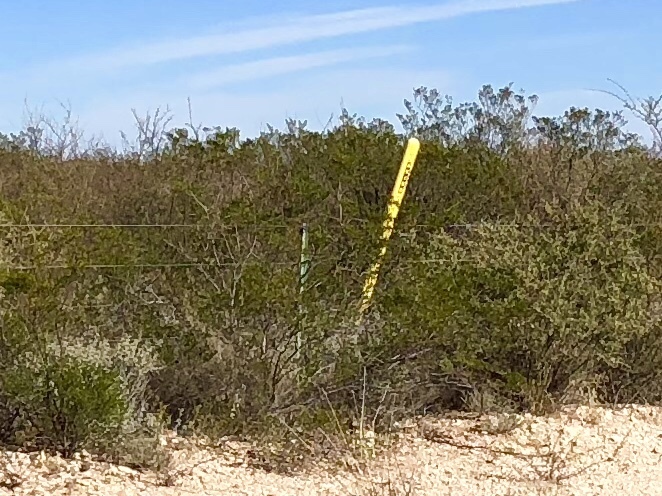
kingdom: Plantae
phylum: Tracheophyta
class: Magnoliopsida
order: Zygophyllales
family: Zygophyllaceae
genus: Larrea
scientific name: Larrea tridentata
